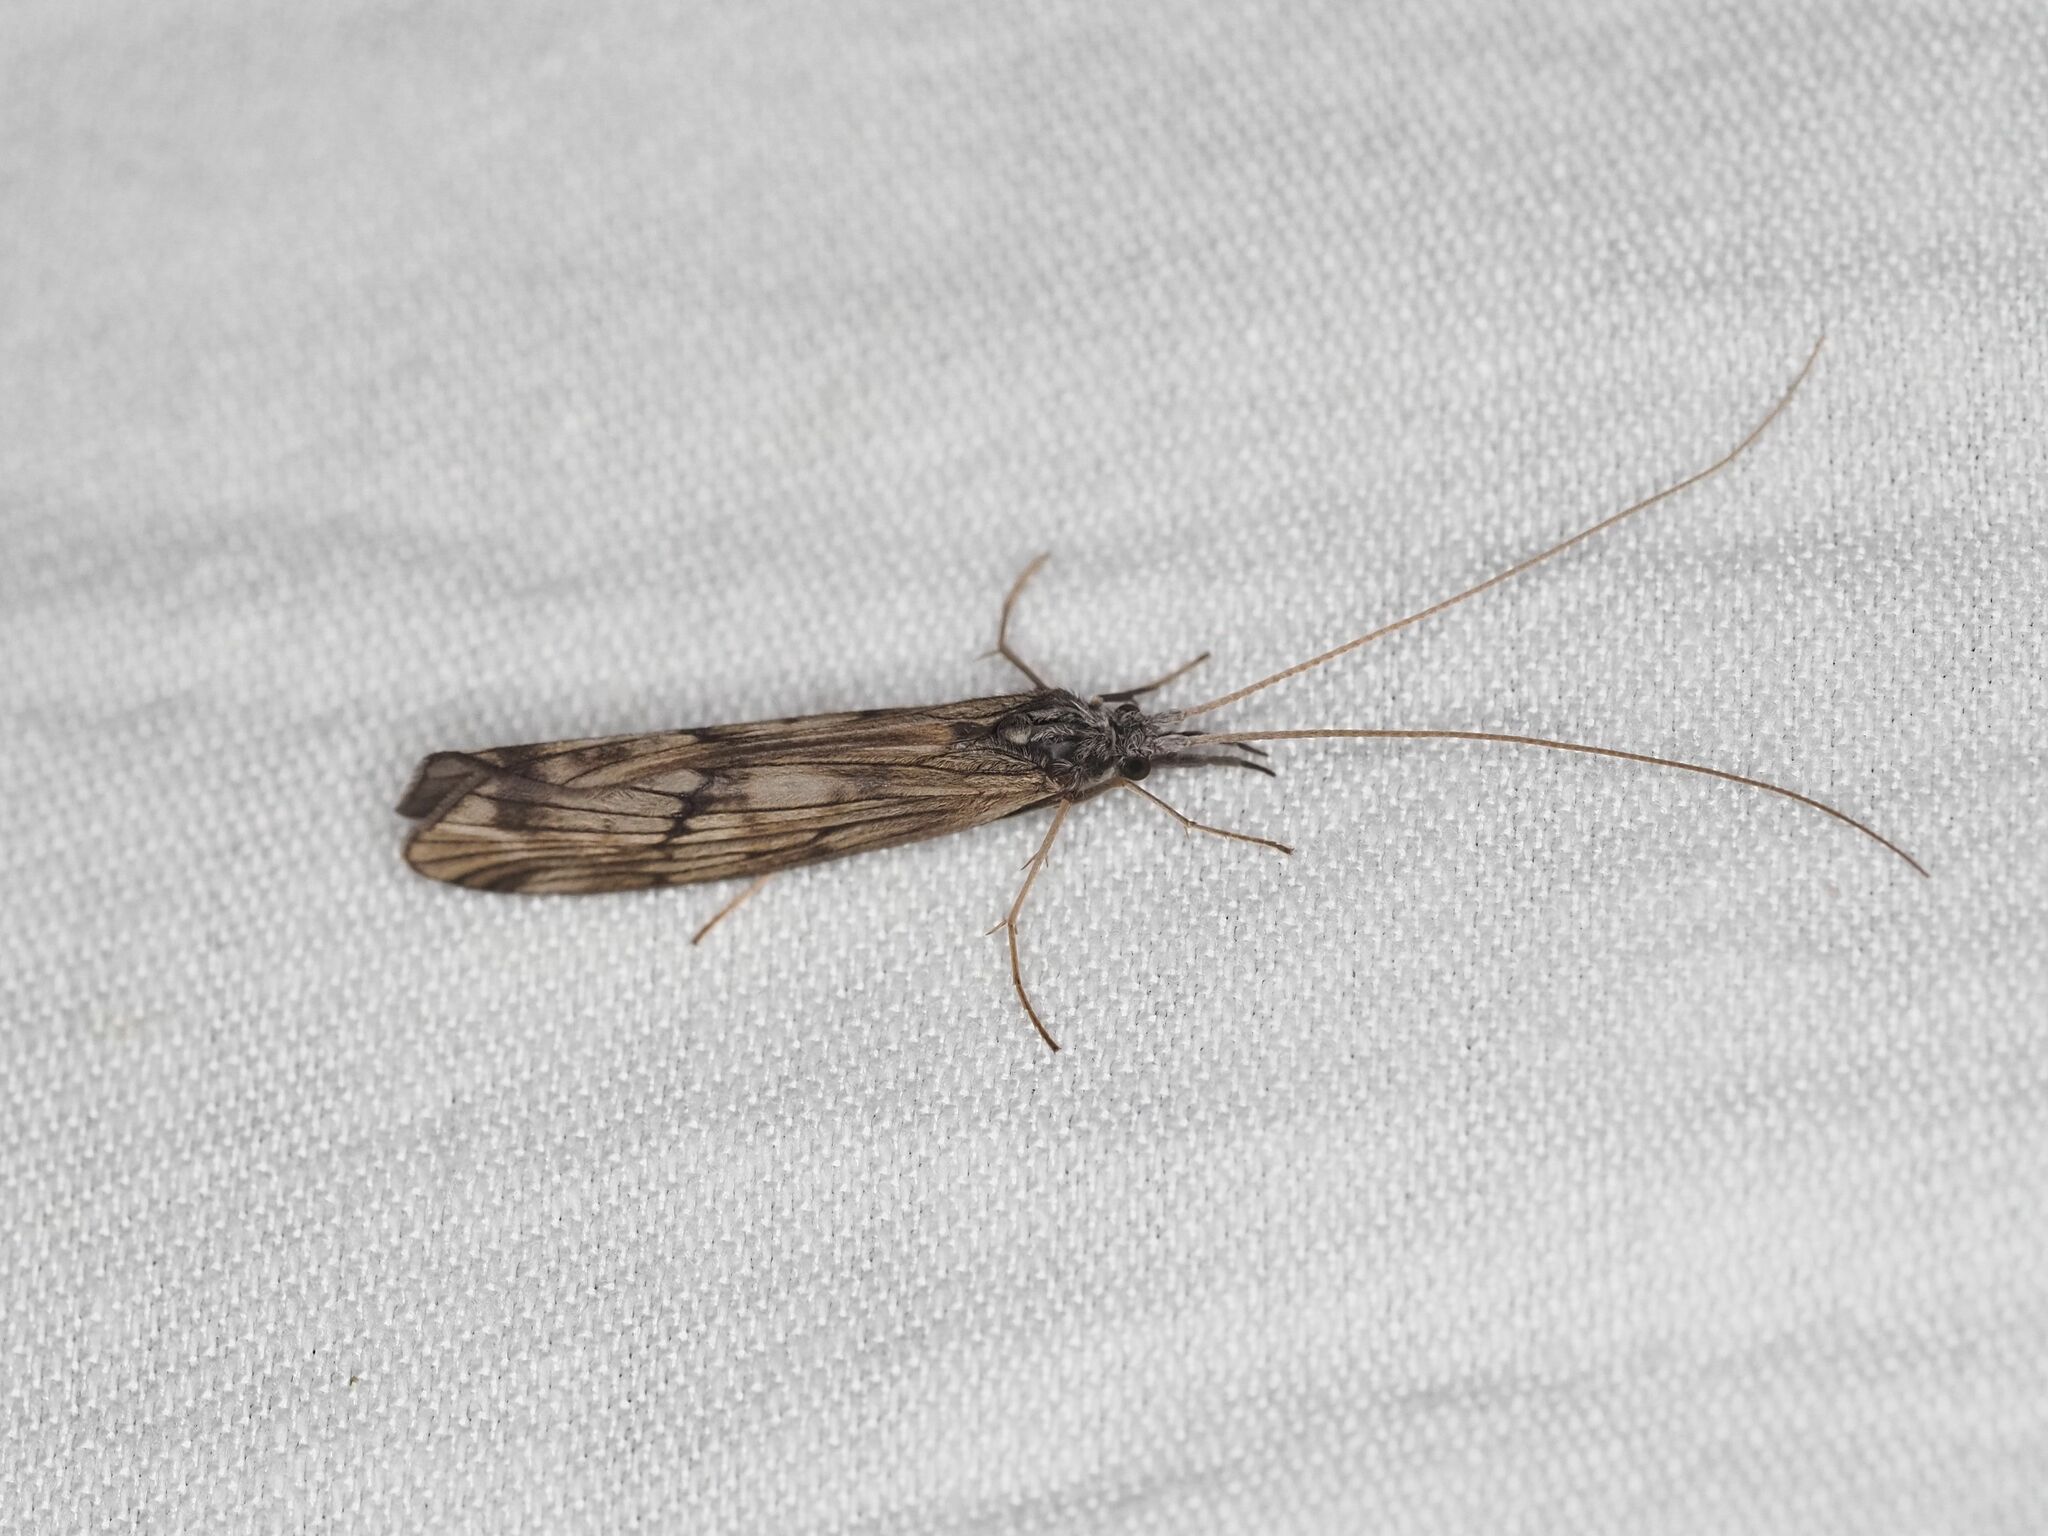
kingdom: Animalia
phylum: Arthropoda
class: Insecta
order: Trichoptera
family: Odontoceridae
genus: Odontocerum
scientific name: Odontocerum albicorne
